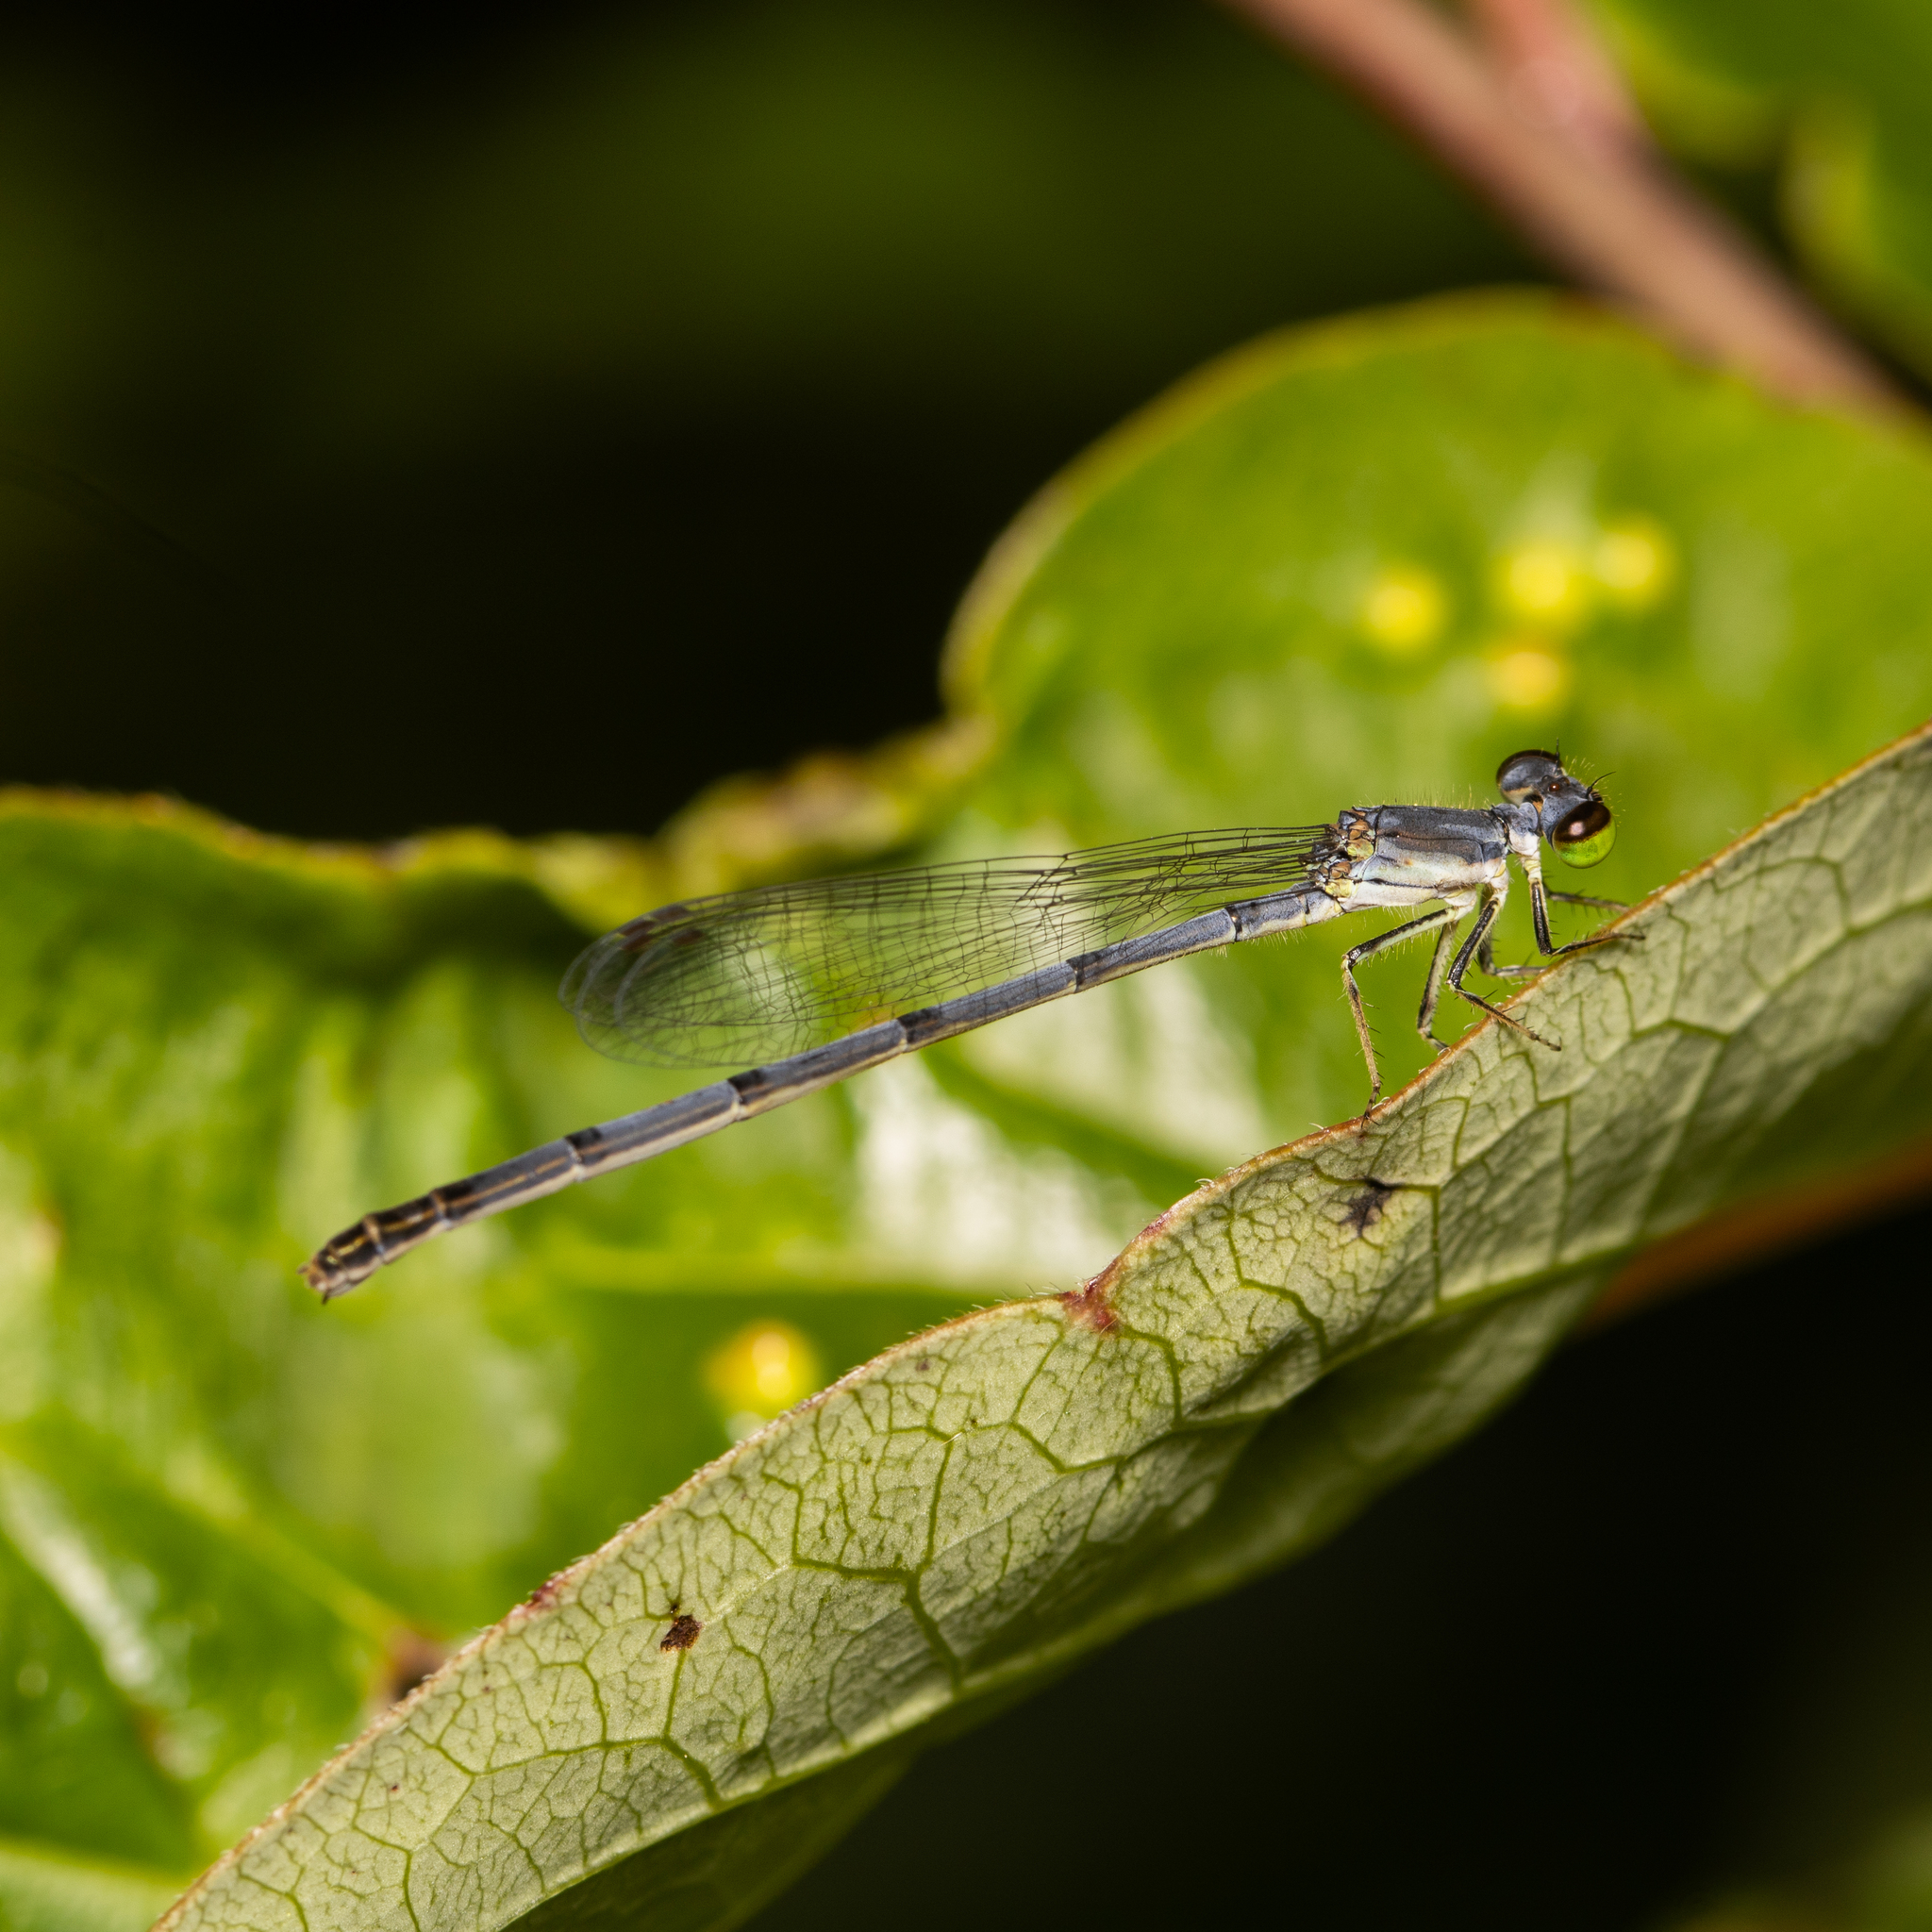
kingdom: Animalia
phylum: Arthropoda
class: Insecta
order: Odonata
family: Coenagrionidae
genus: Ischnura
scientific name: Ischnura posita
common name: Fragile forktail
